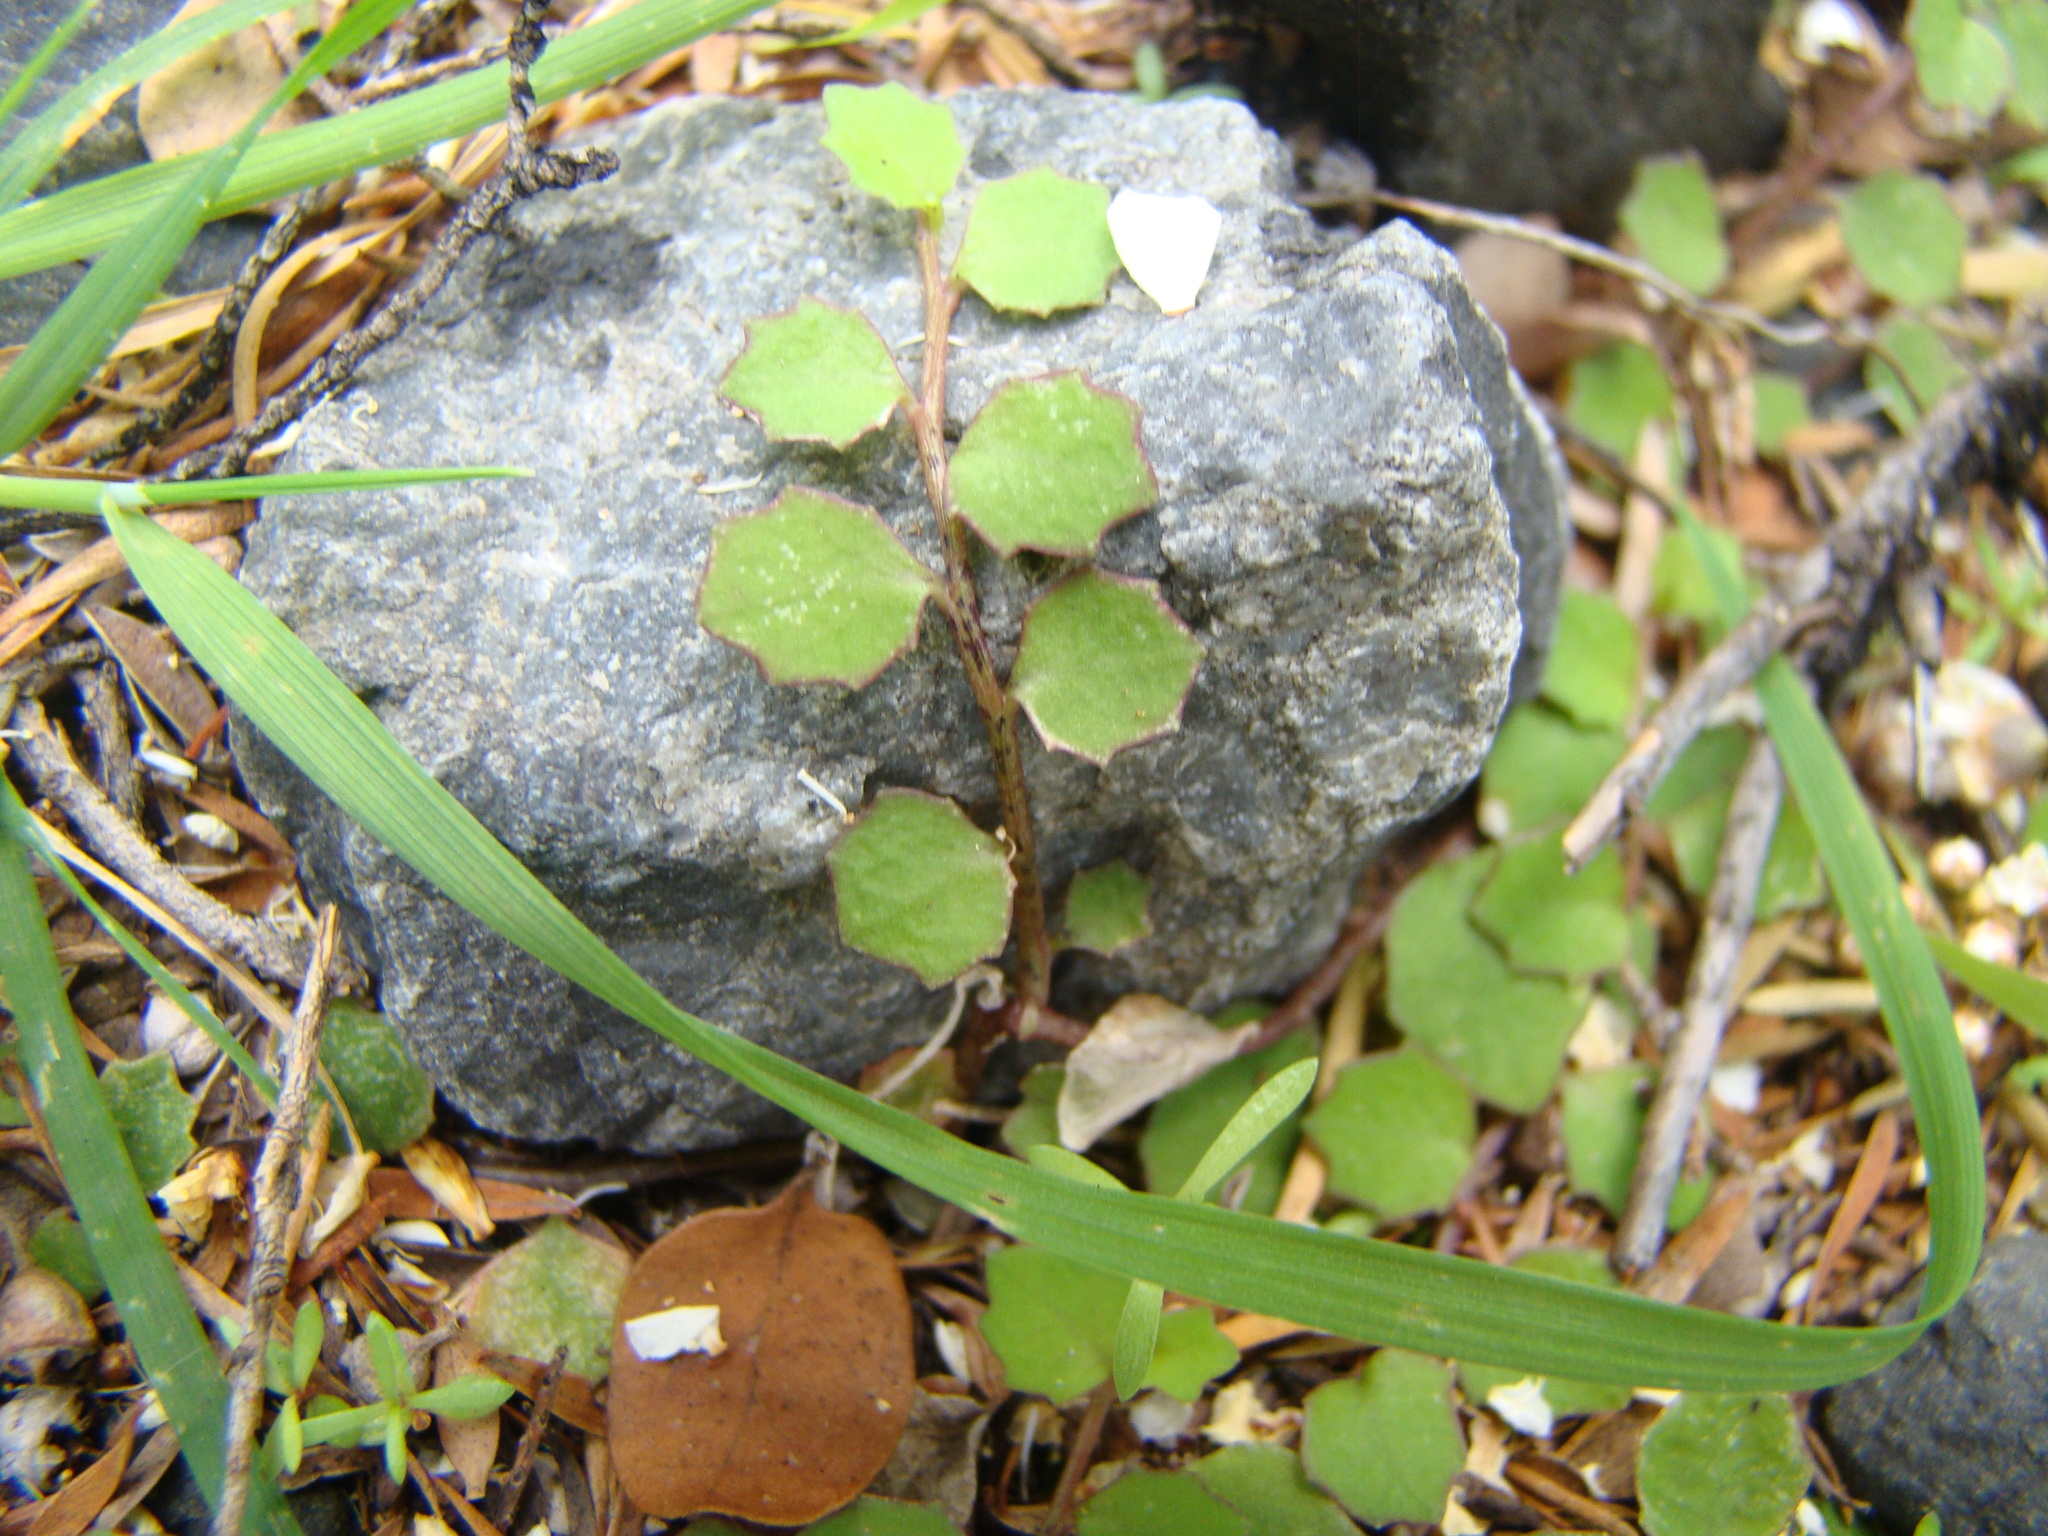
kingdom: Plantae
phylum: Tracheophyta
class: Magnoliopsida
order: Asterales
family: Campanulaceae
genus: Lobelia
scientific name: Lobelia angulata
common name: Lawn lobelia
